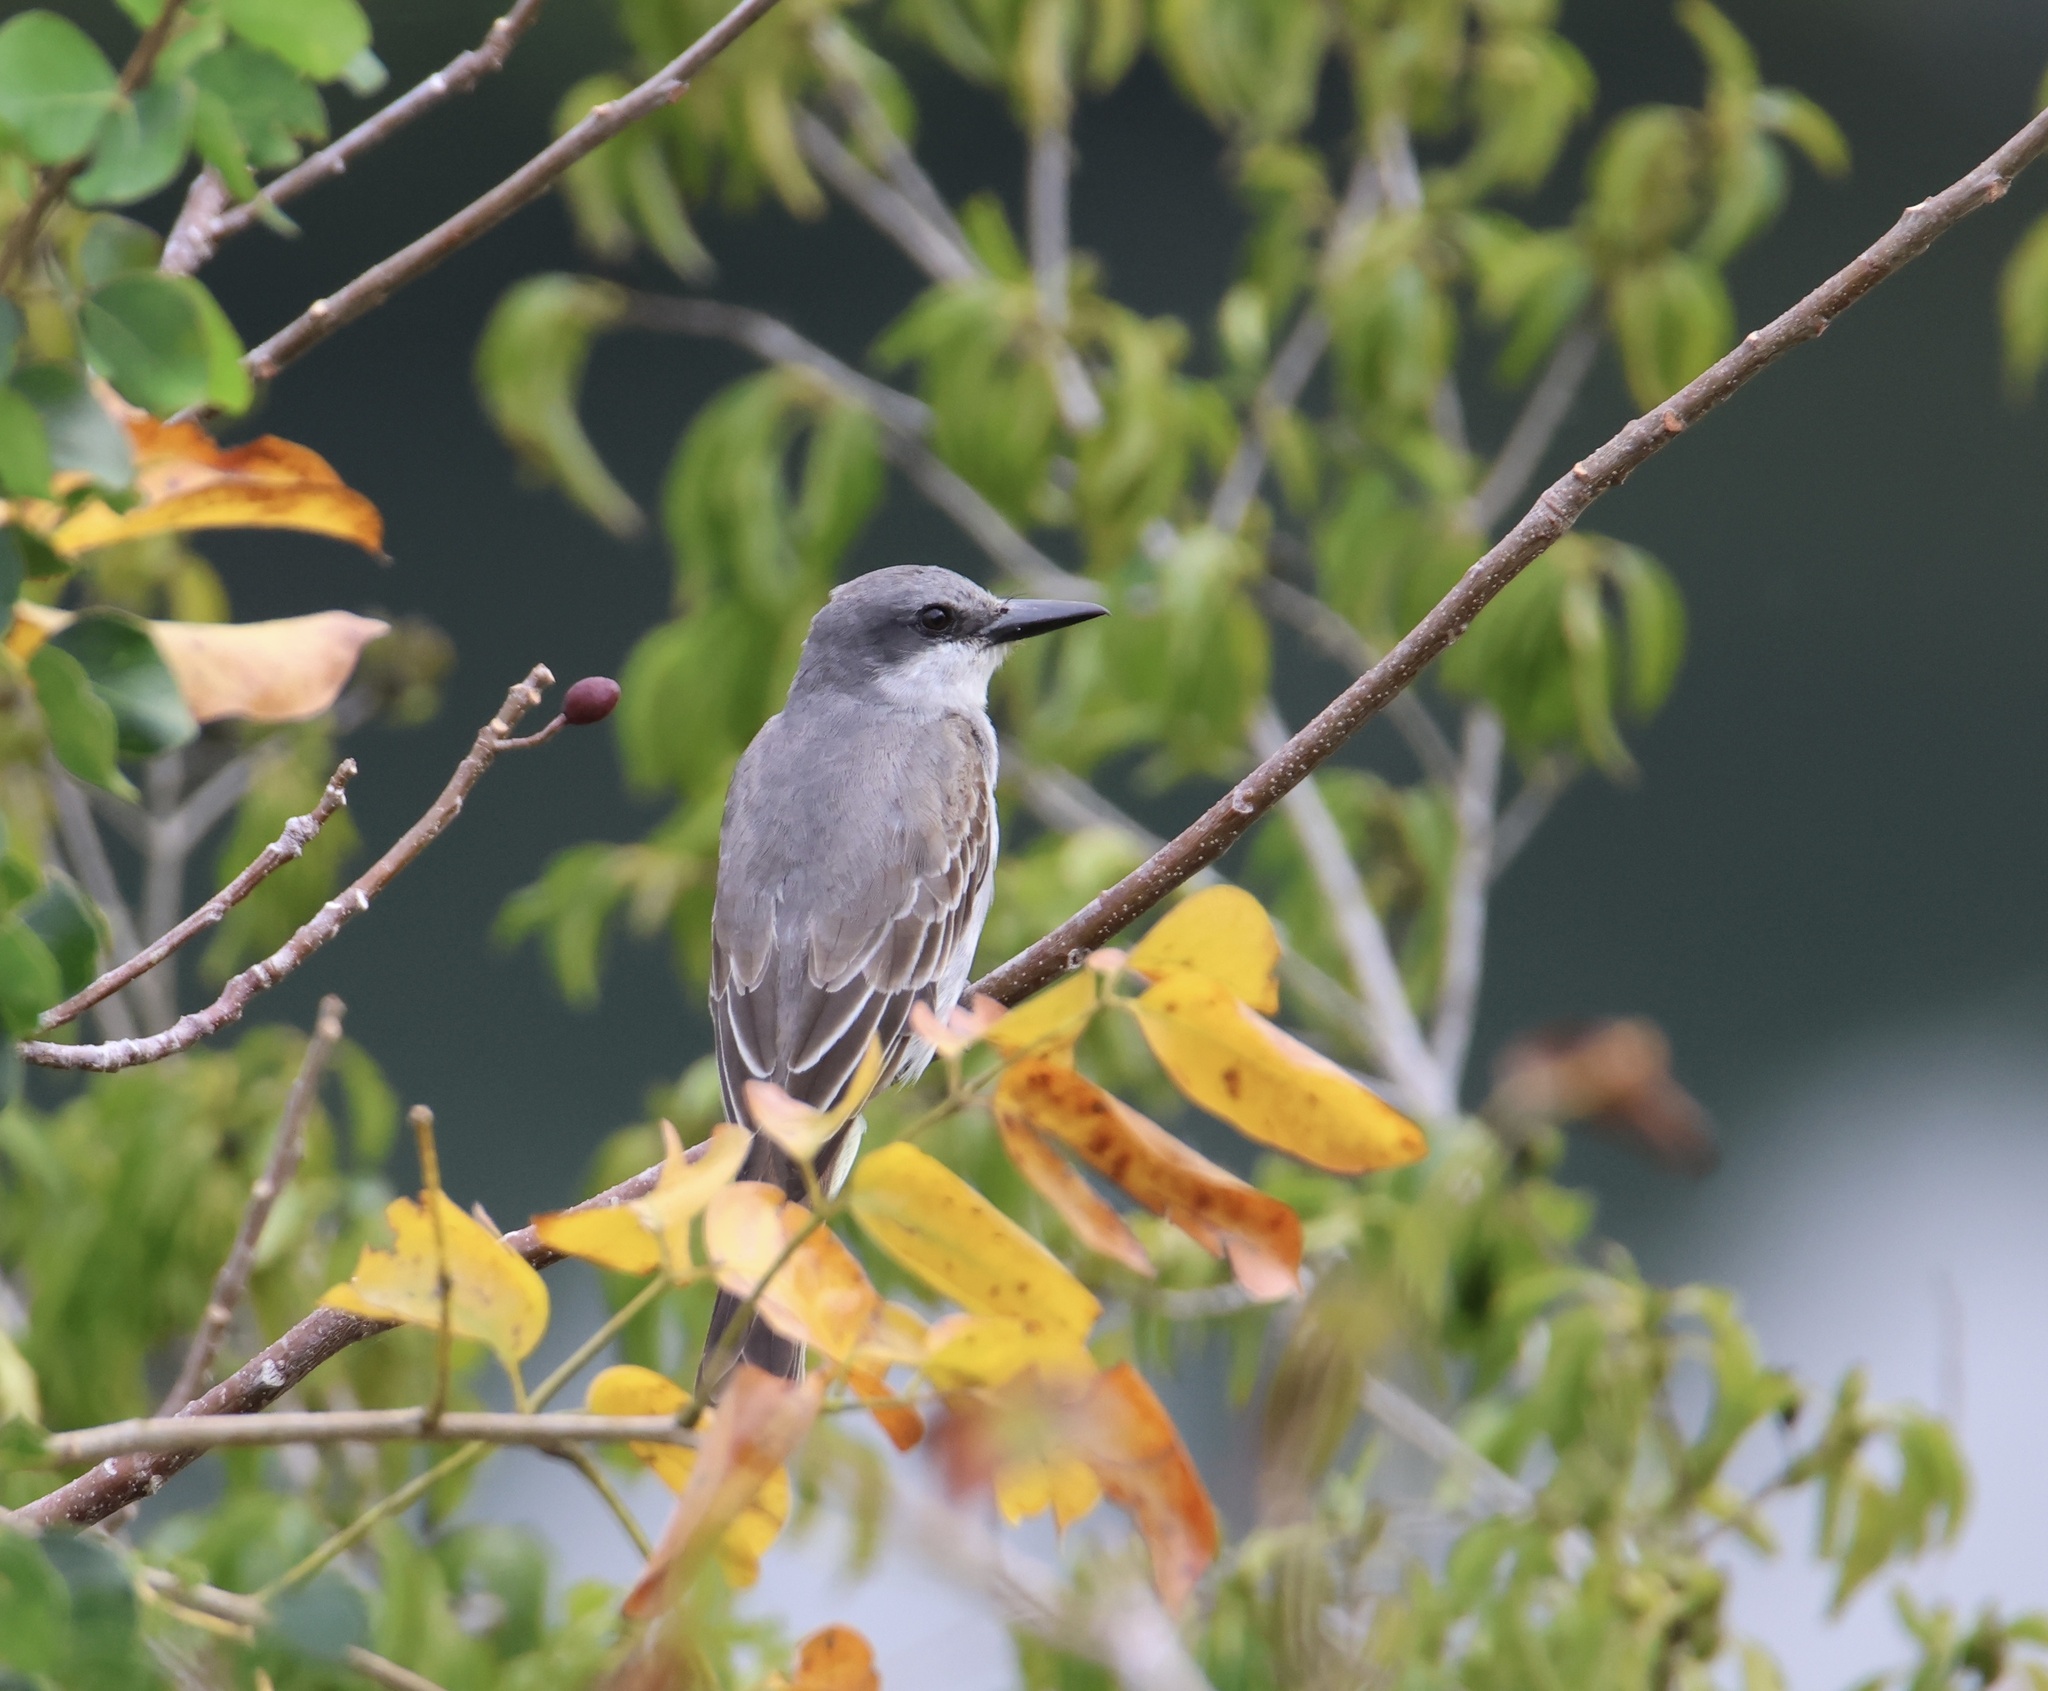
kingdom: Animalia
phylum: Chordata
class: Aves
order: Passeriformes
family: Tyrannidae
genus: Tyrannus
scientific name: Tyrannus dominicensis
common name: Gray kingbird
